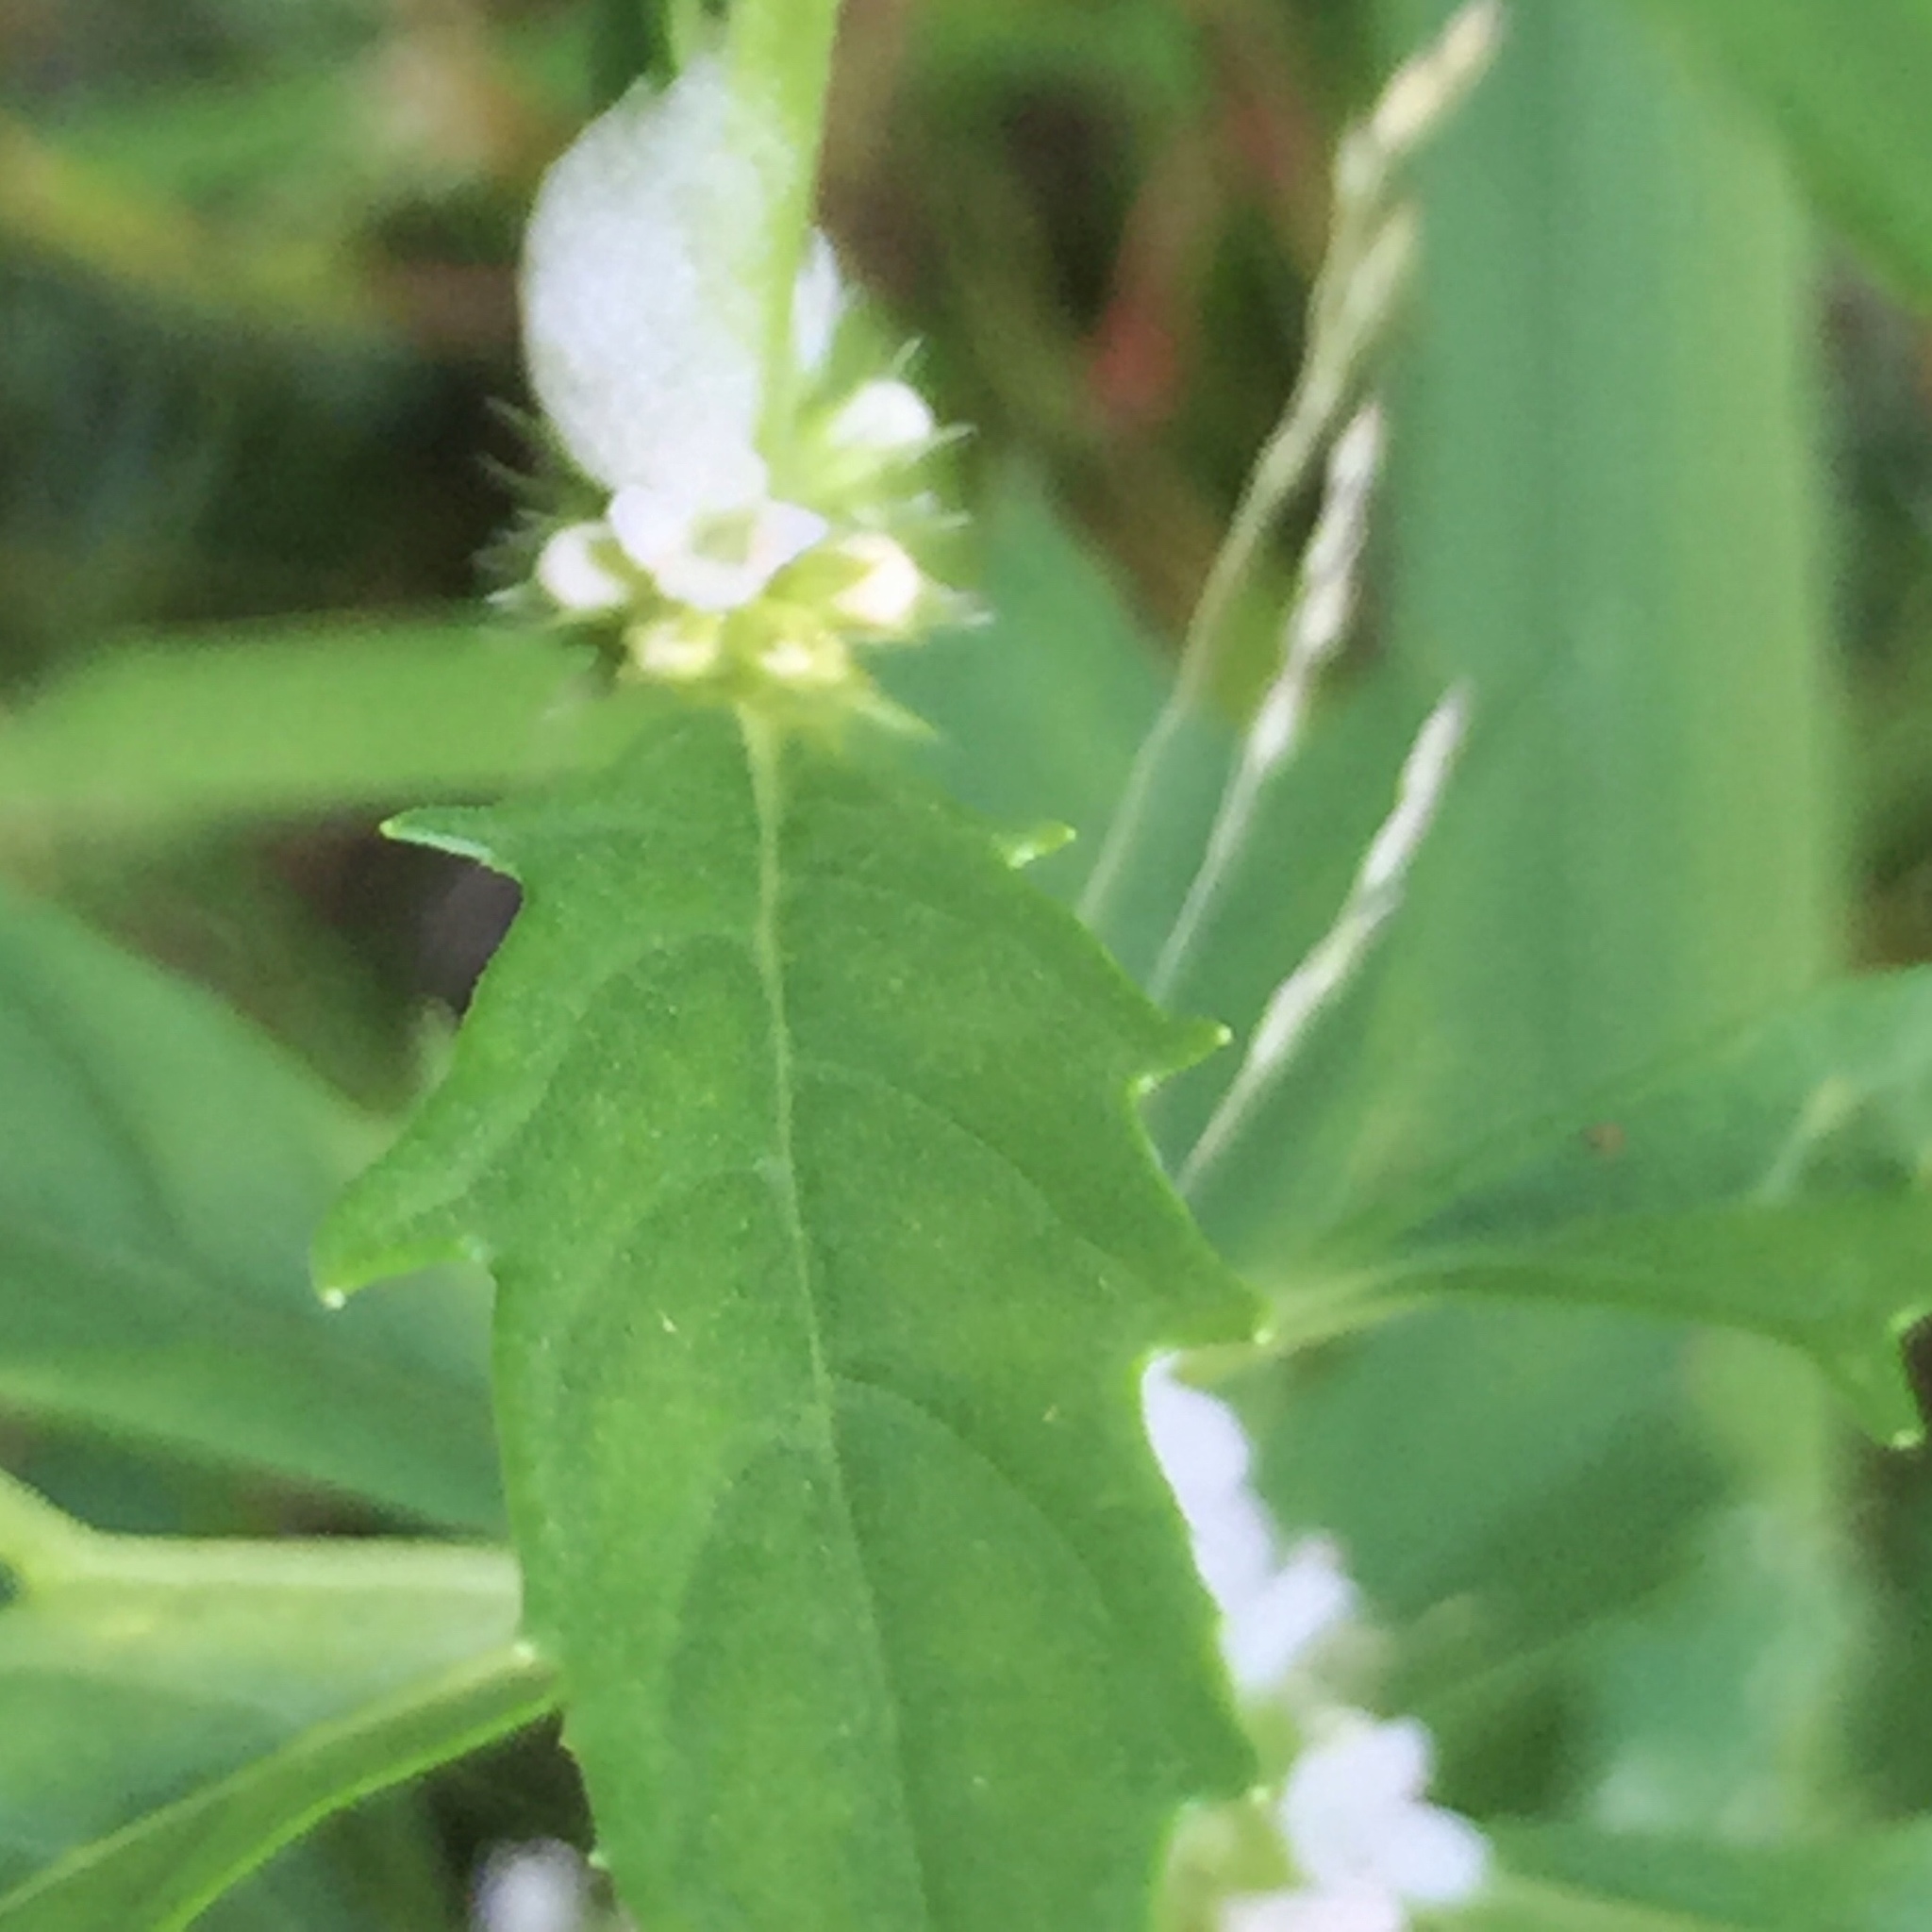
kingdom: Plantae
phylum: Tracheophyta
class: Magnoliopsida
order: Lamiales
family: Lamiaceae
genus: Lycopus
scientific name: Lycopus americanus
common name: American bugleweed
